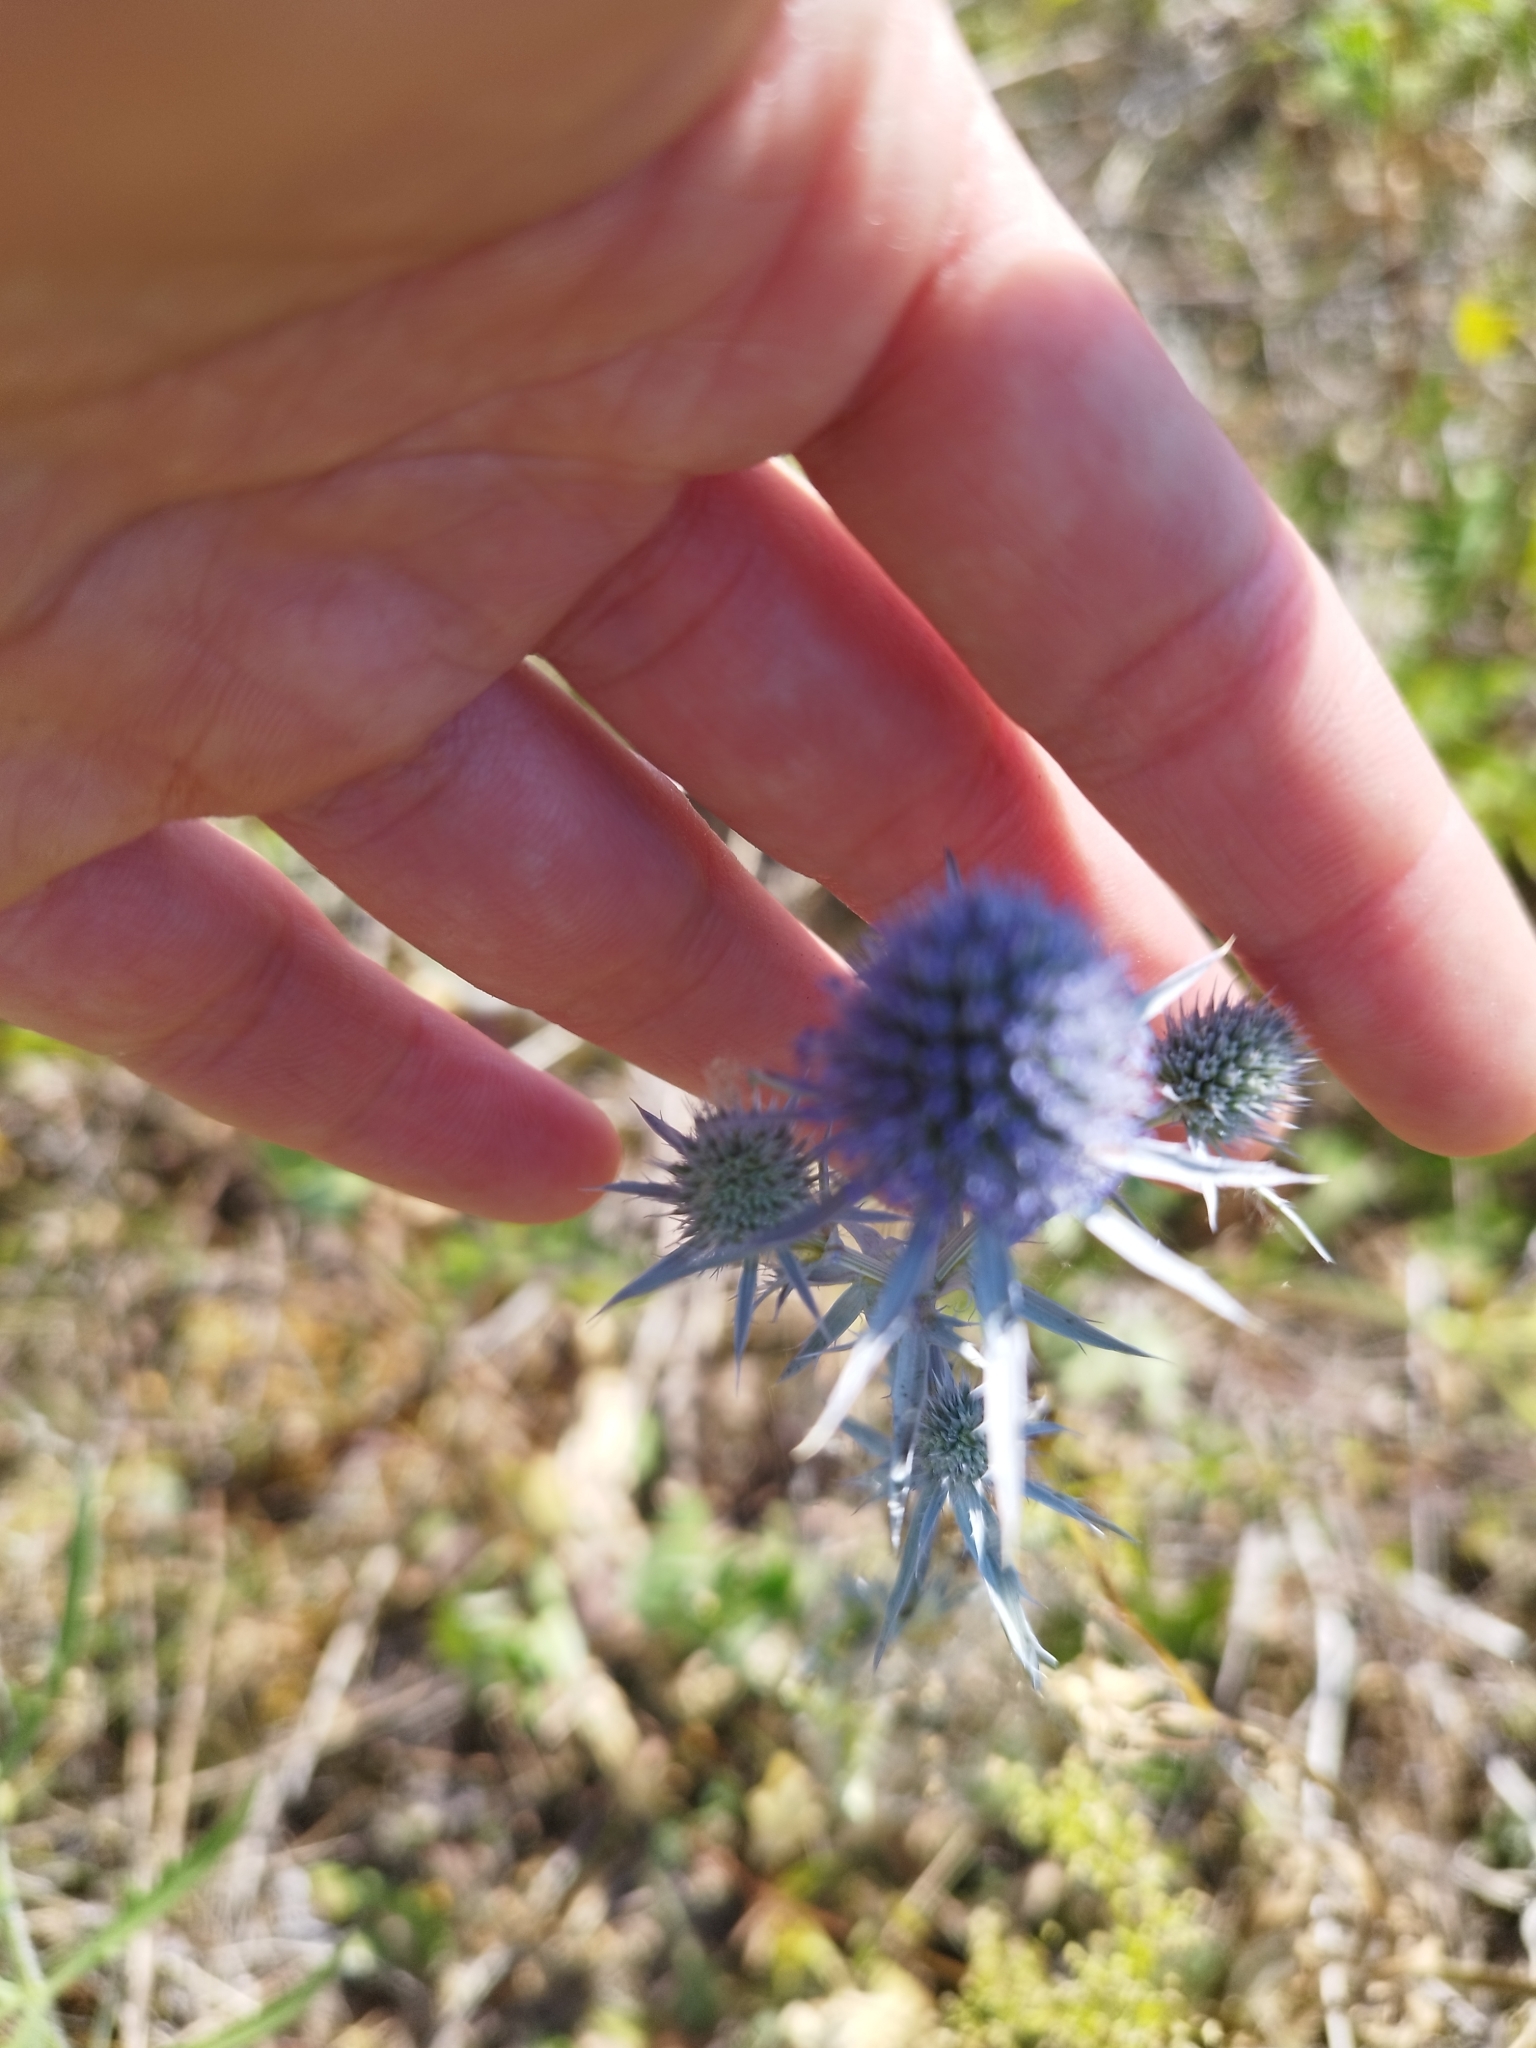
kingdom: Plantae
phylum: Tracheophyta
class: Magnoliopsida
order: Apiales
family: Apiaceae
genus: Eryngium
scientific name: Eryngium planum
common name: Blue eryngo
